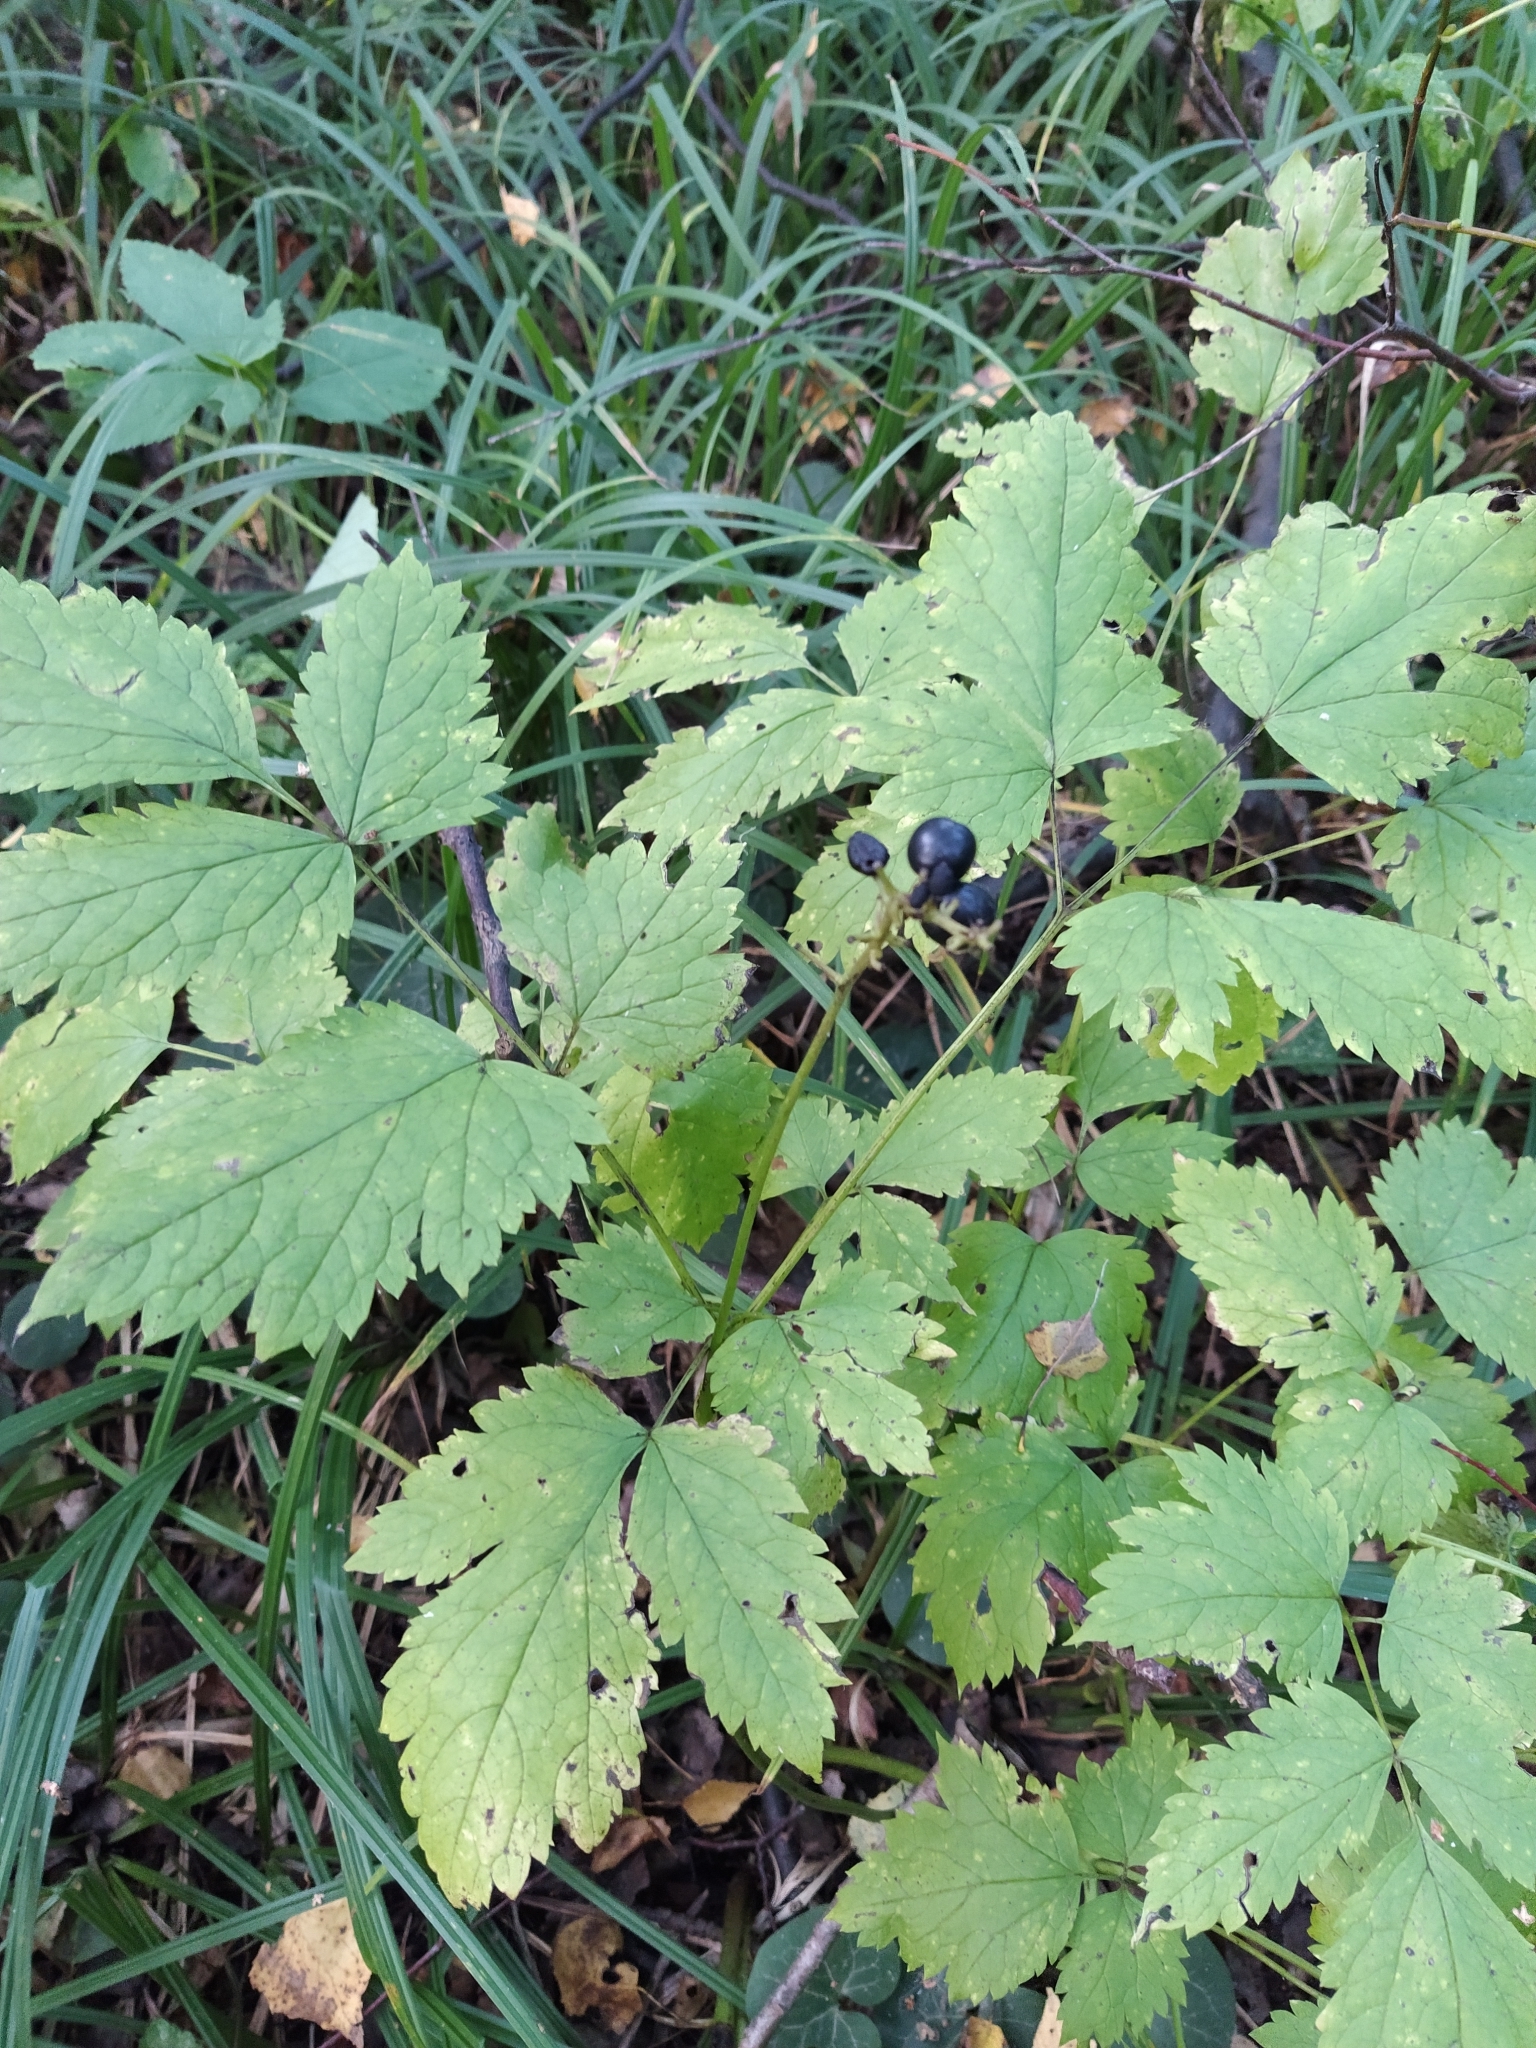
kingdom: Plantae
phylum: Tracheophyta
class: Magnoliopsida
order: Ranunculales
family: Ranunculaceae
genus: Actaea
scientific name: Actaea spicata
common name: Baneberry
